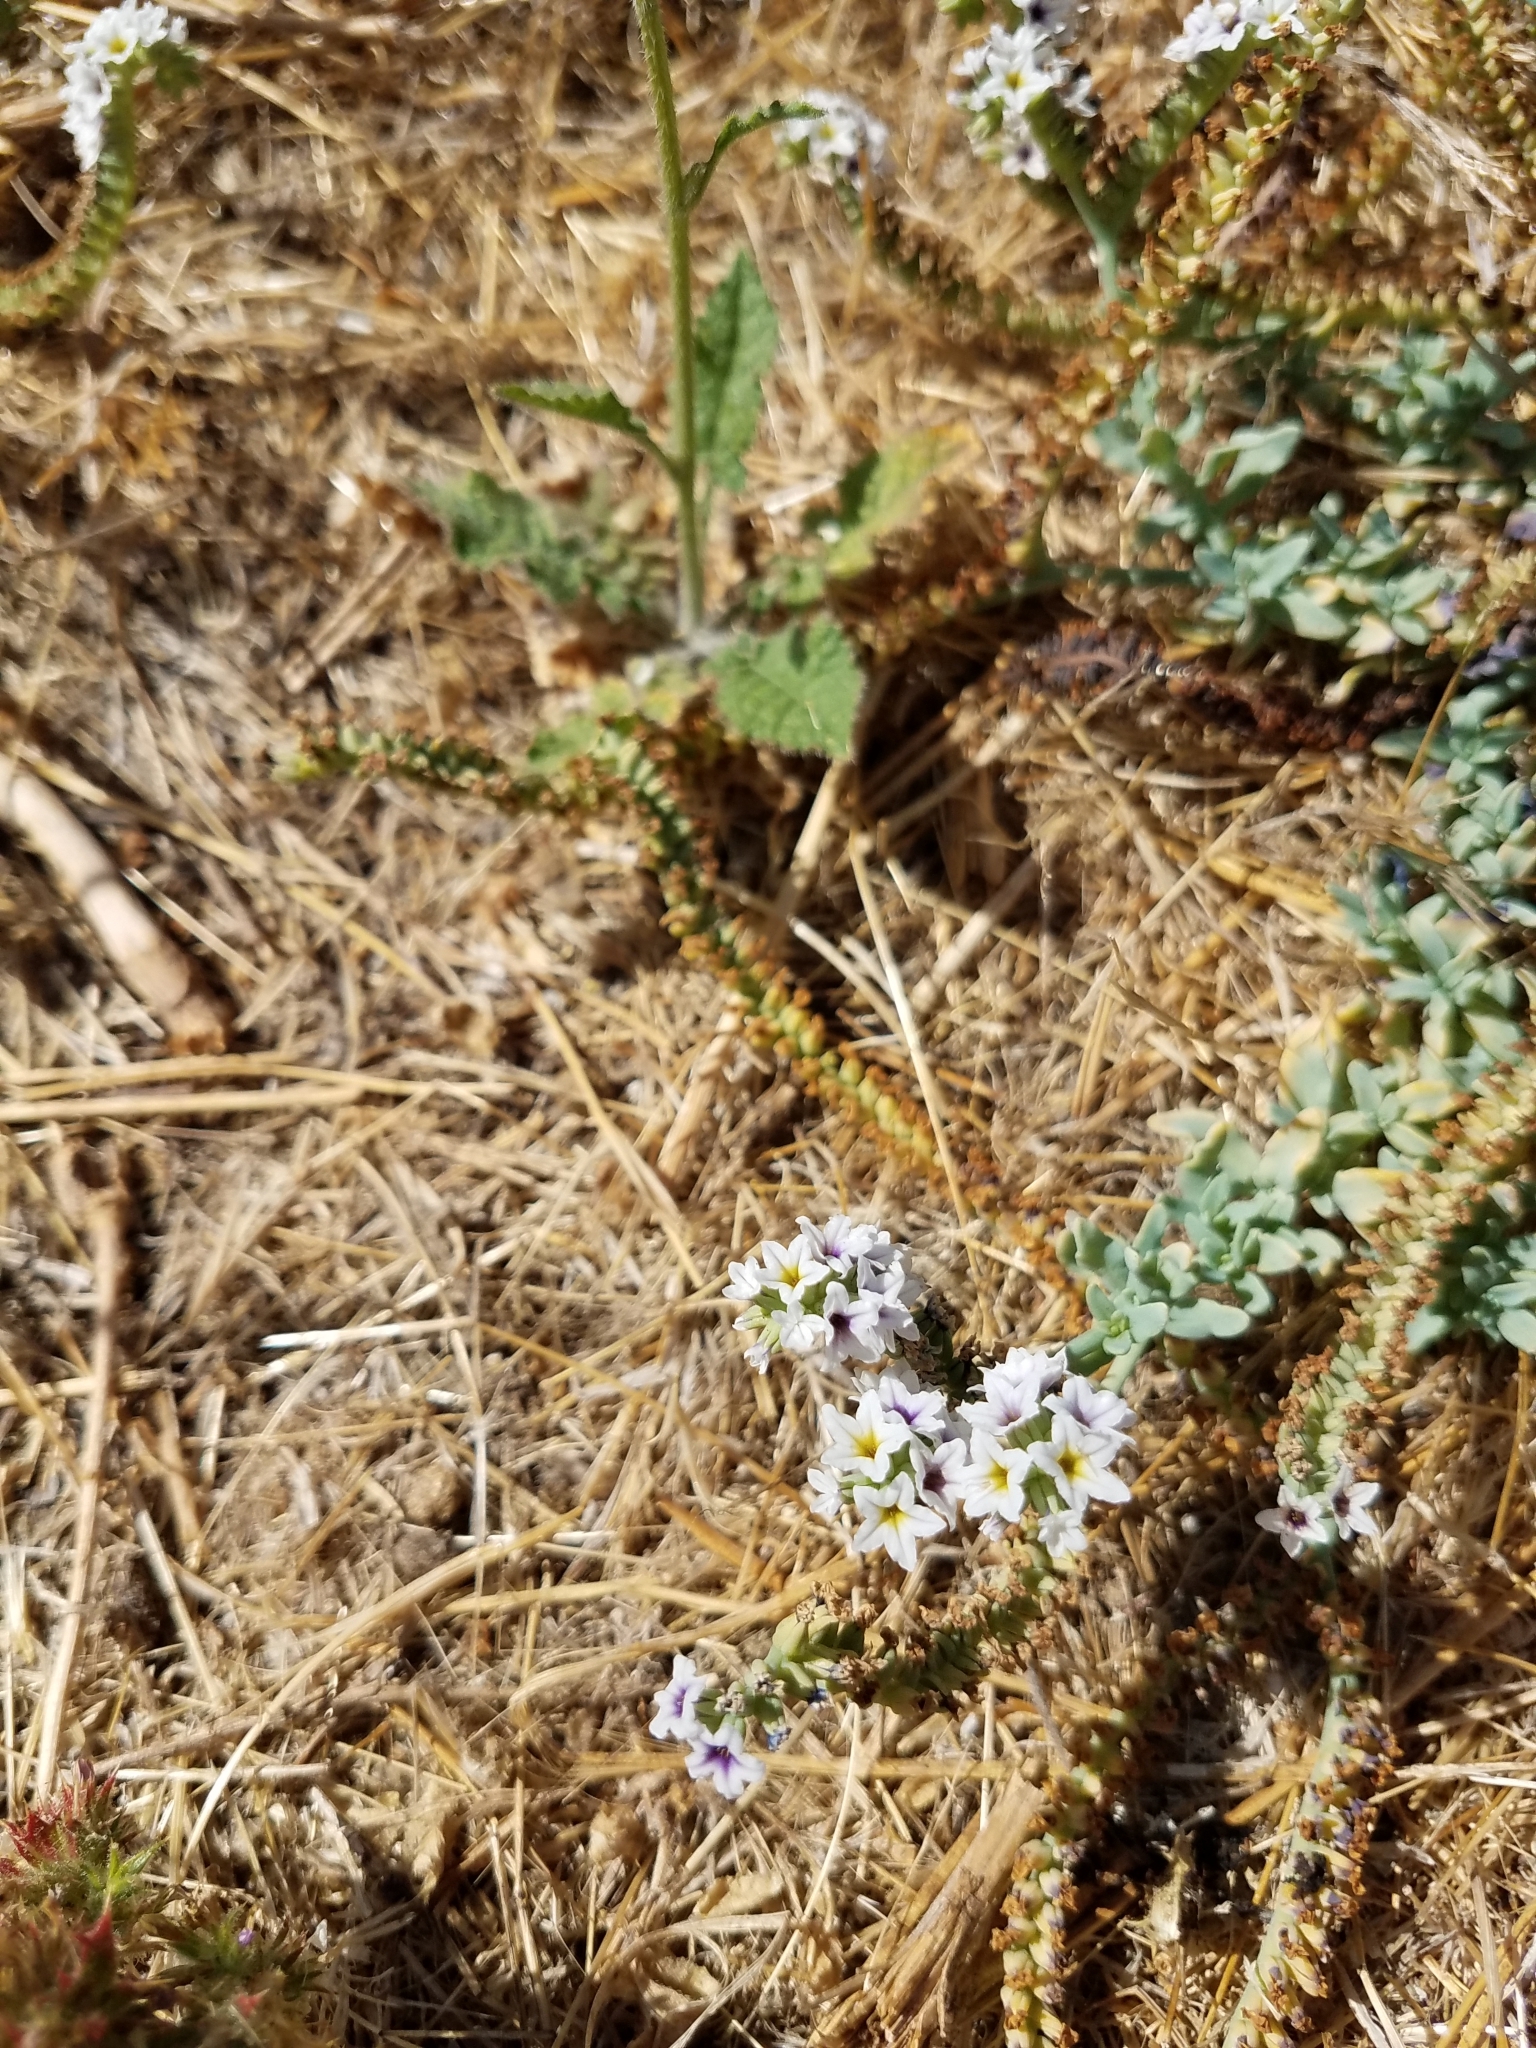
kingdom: Plantae
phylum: Tracheophyta
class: Magnoliopsida
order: Boraginales
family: Heliotropiaceae
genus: Heliotropium
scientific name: Heliotropium curassavicum
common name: Seaside heliotrope
